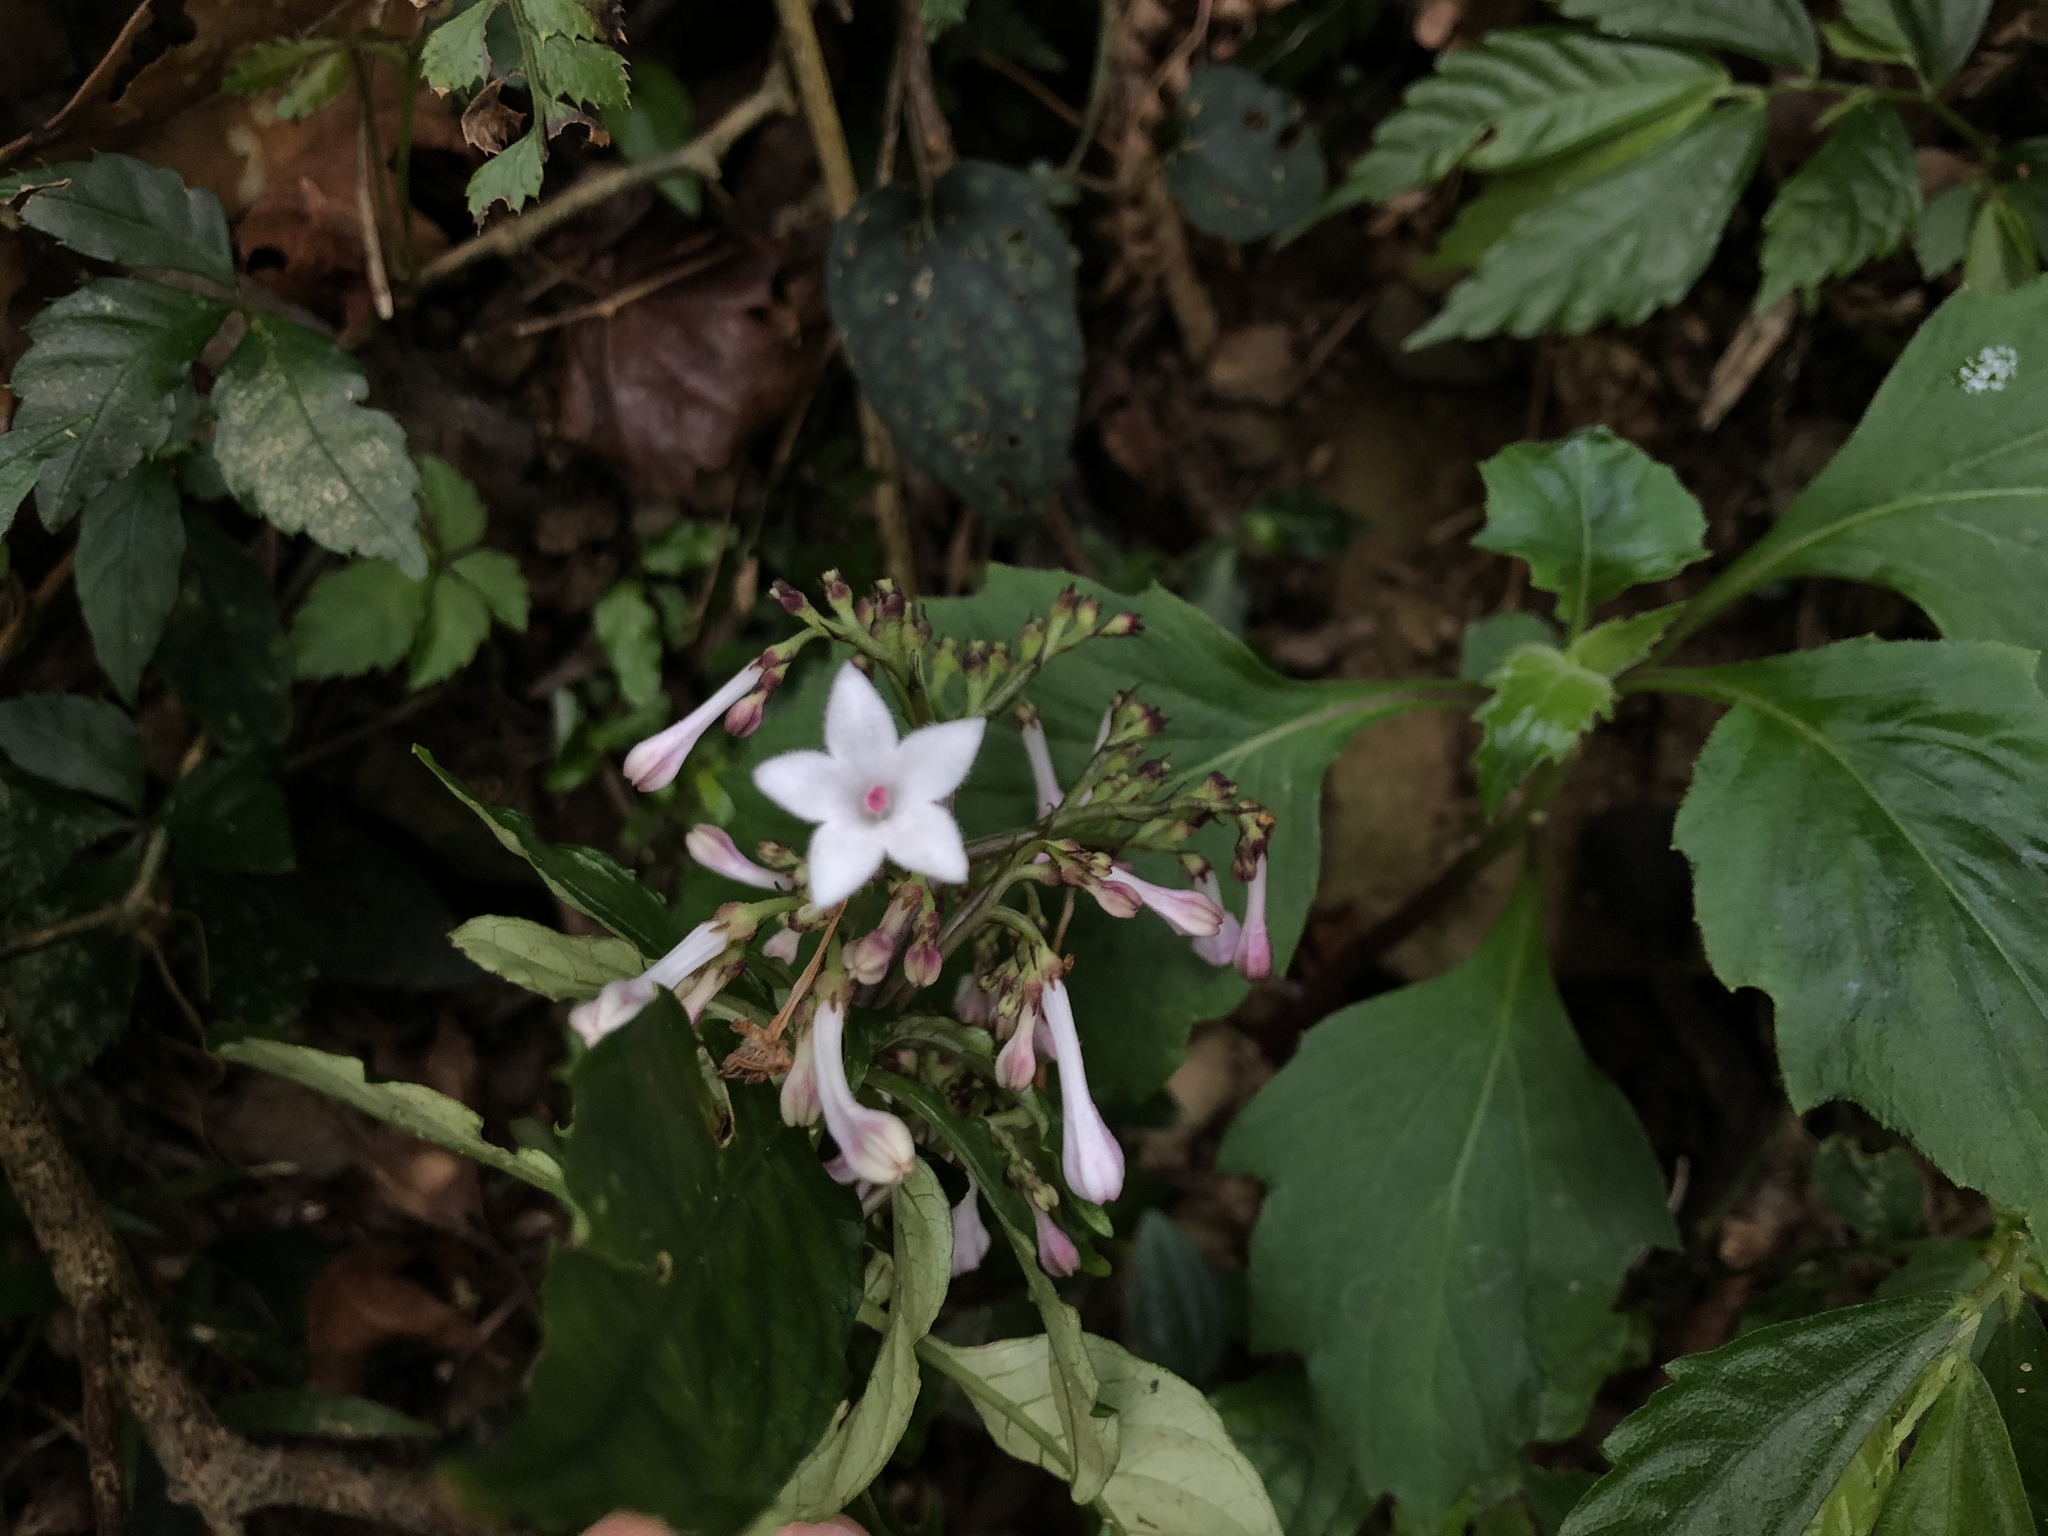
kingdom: Plantae
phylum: Tracheophyta
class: Magnoliopsida
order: Gentianales
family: Rubiaceae
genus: Ophiorrhiza
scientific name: Ophiorrhiza japonica
